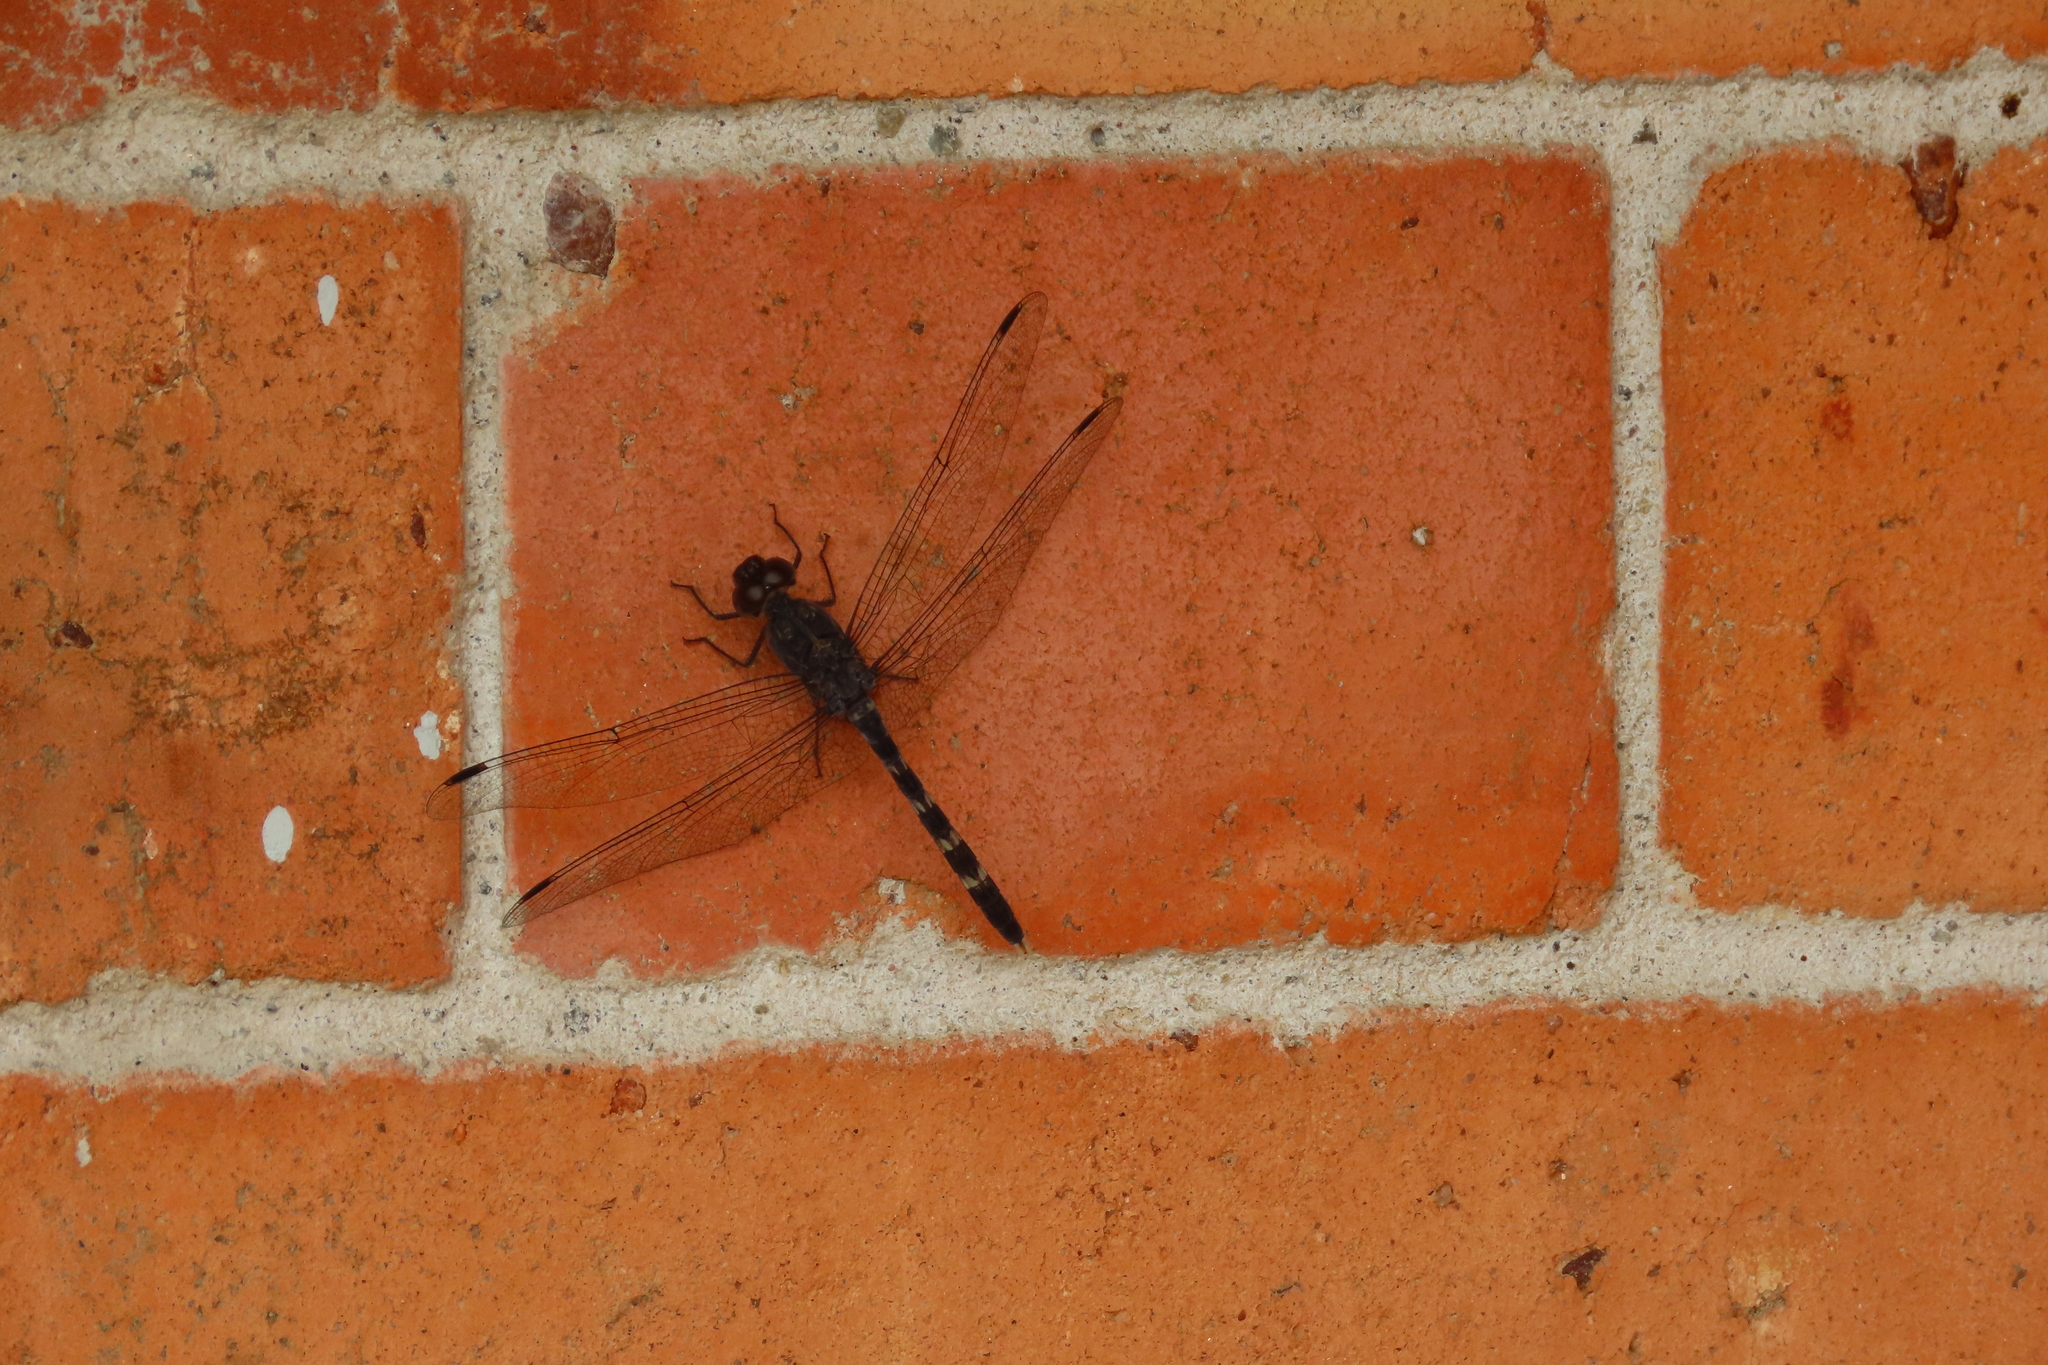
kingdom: Animalia
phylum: Arthropoda
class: Insecta
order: Odonata
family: Libellulidae
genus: Bradinopyga
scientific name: Bradinopyga geminata
